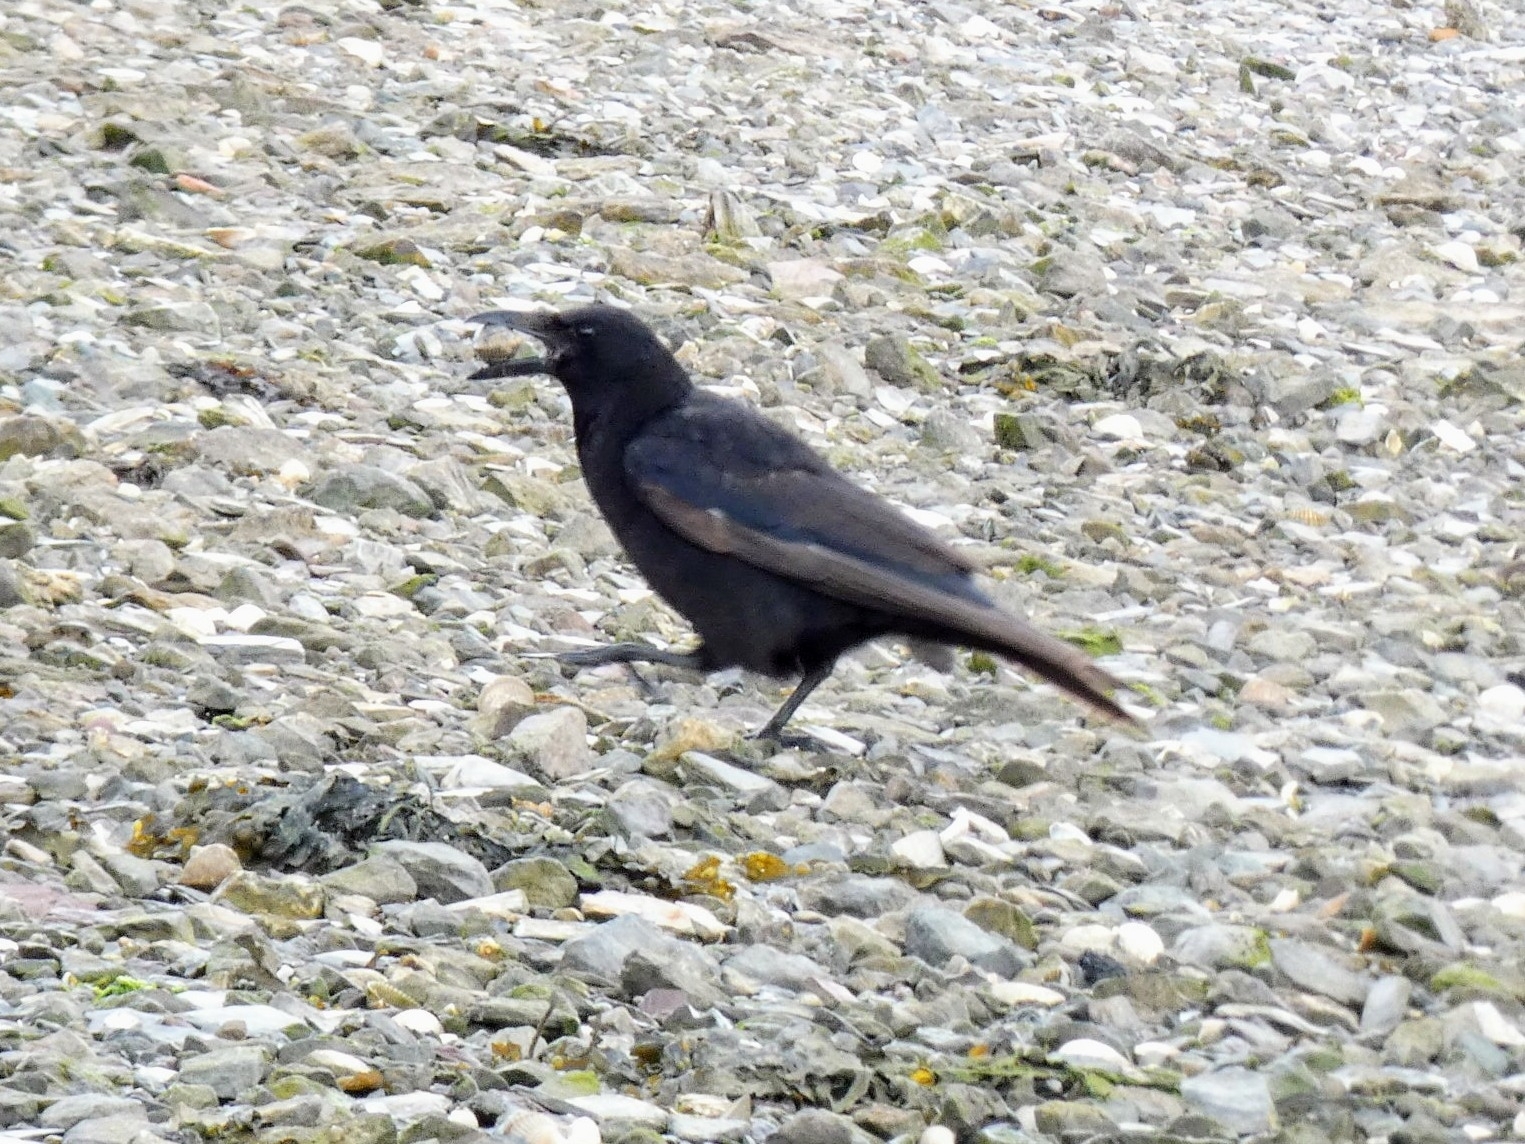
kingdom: Animalia
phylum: Chordata
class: Aves
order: Passeriformes
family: Corvidae
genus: Corvus
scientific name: Corvus corone
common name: Carrion crow
